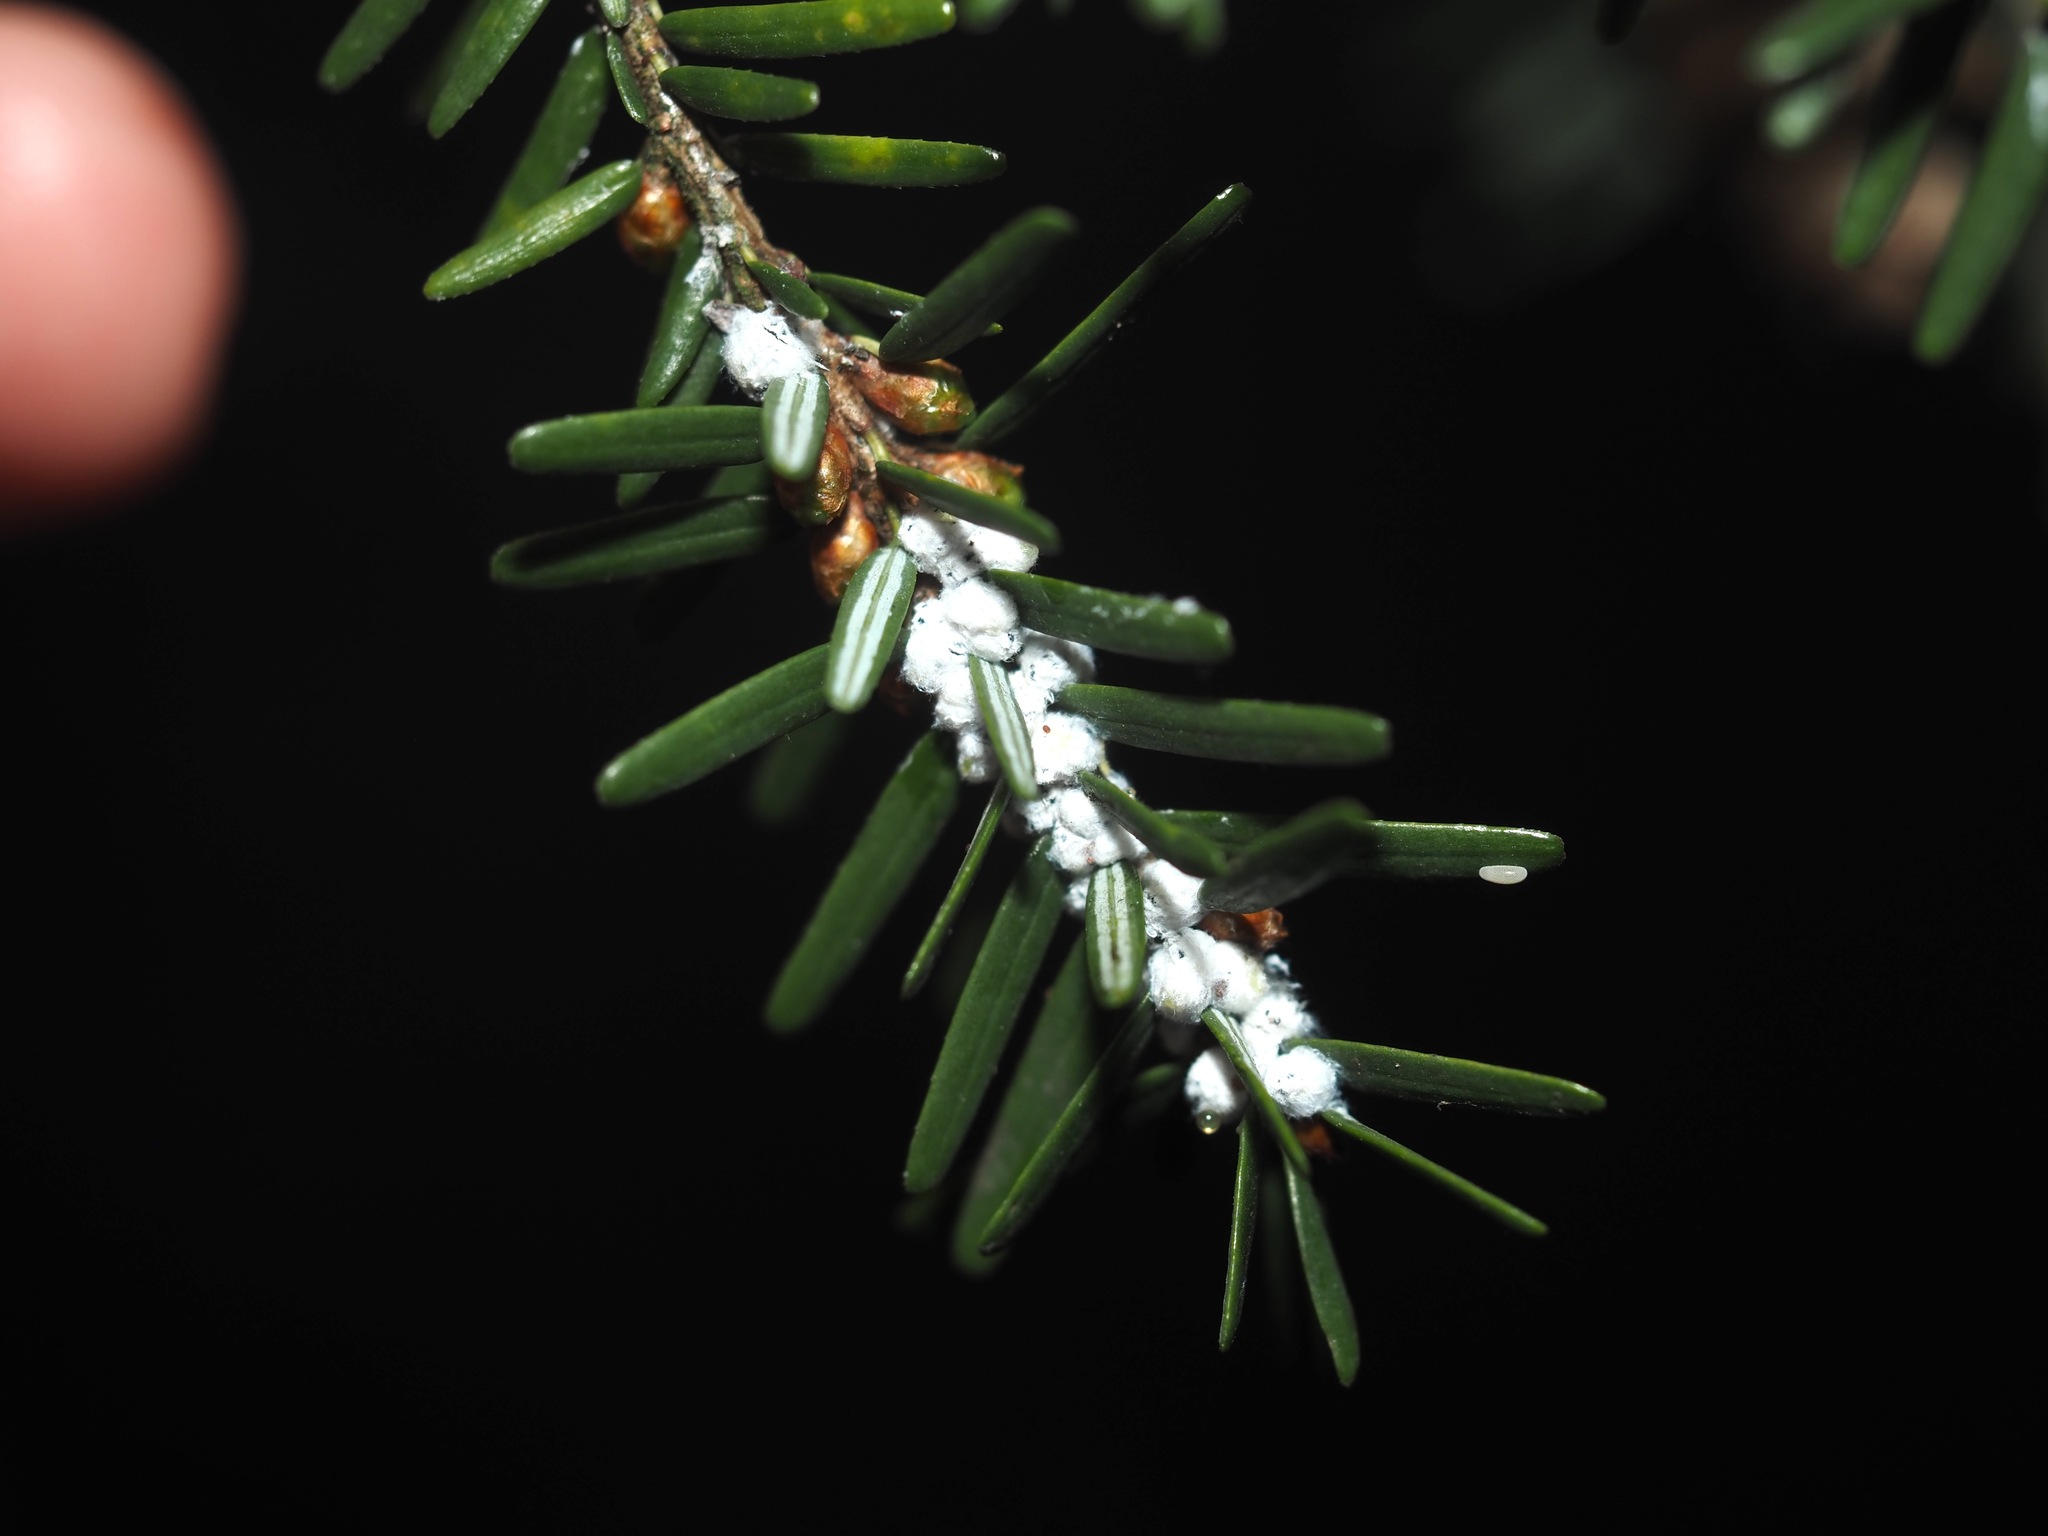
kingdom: Animalia
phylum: Arthropoda
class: Insecta
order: Hemiptera
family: Adelgidae
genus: Adelges
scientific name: Adelges tsugae
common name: Hemlock woolly adelgid
